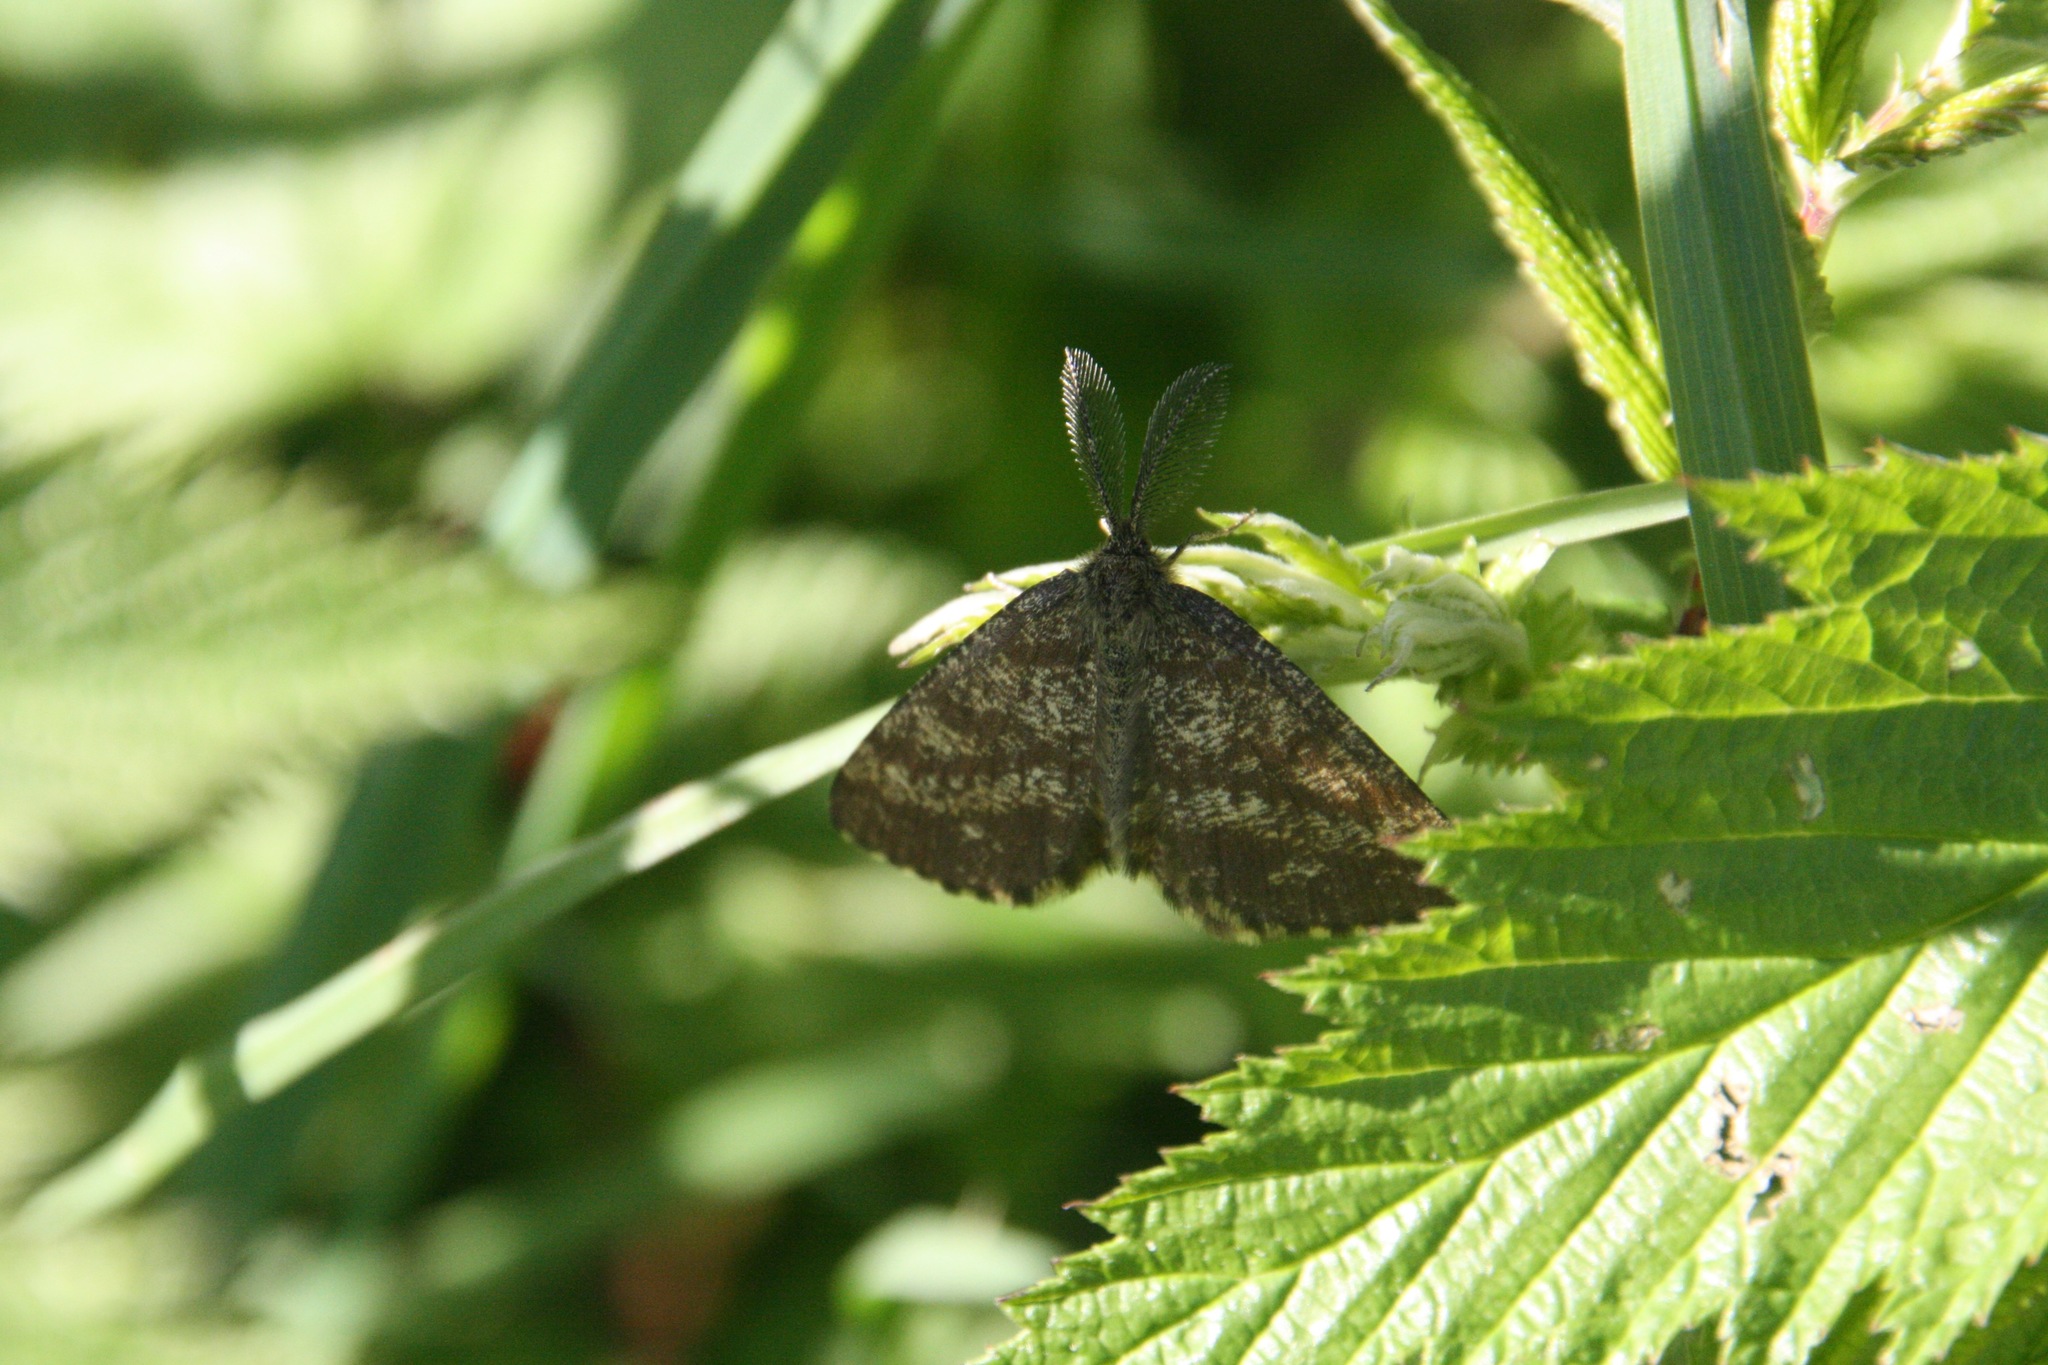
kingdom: Animalia
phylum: Arthropoda
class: Insecta
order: Lepidoptera
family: Geometridae
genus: Ematurga
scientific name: Ematurga atomaria
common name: Common heath
